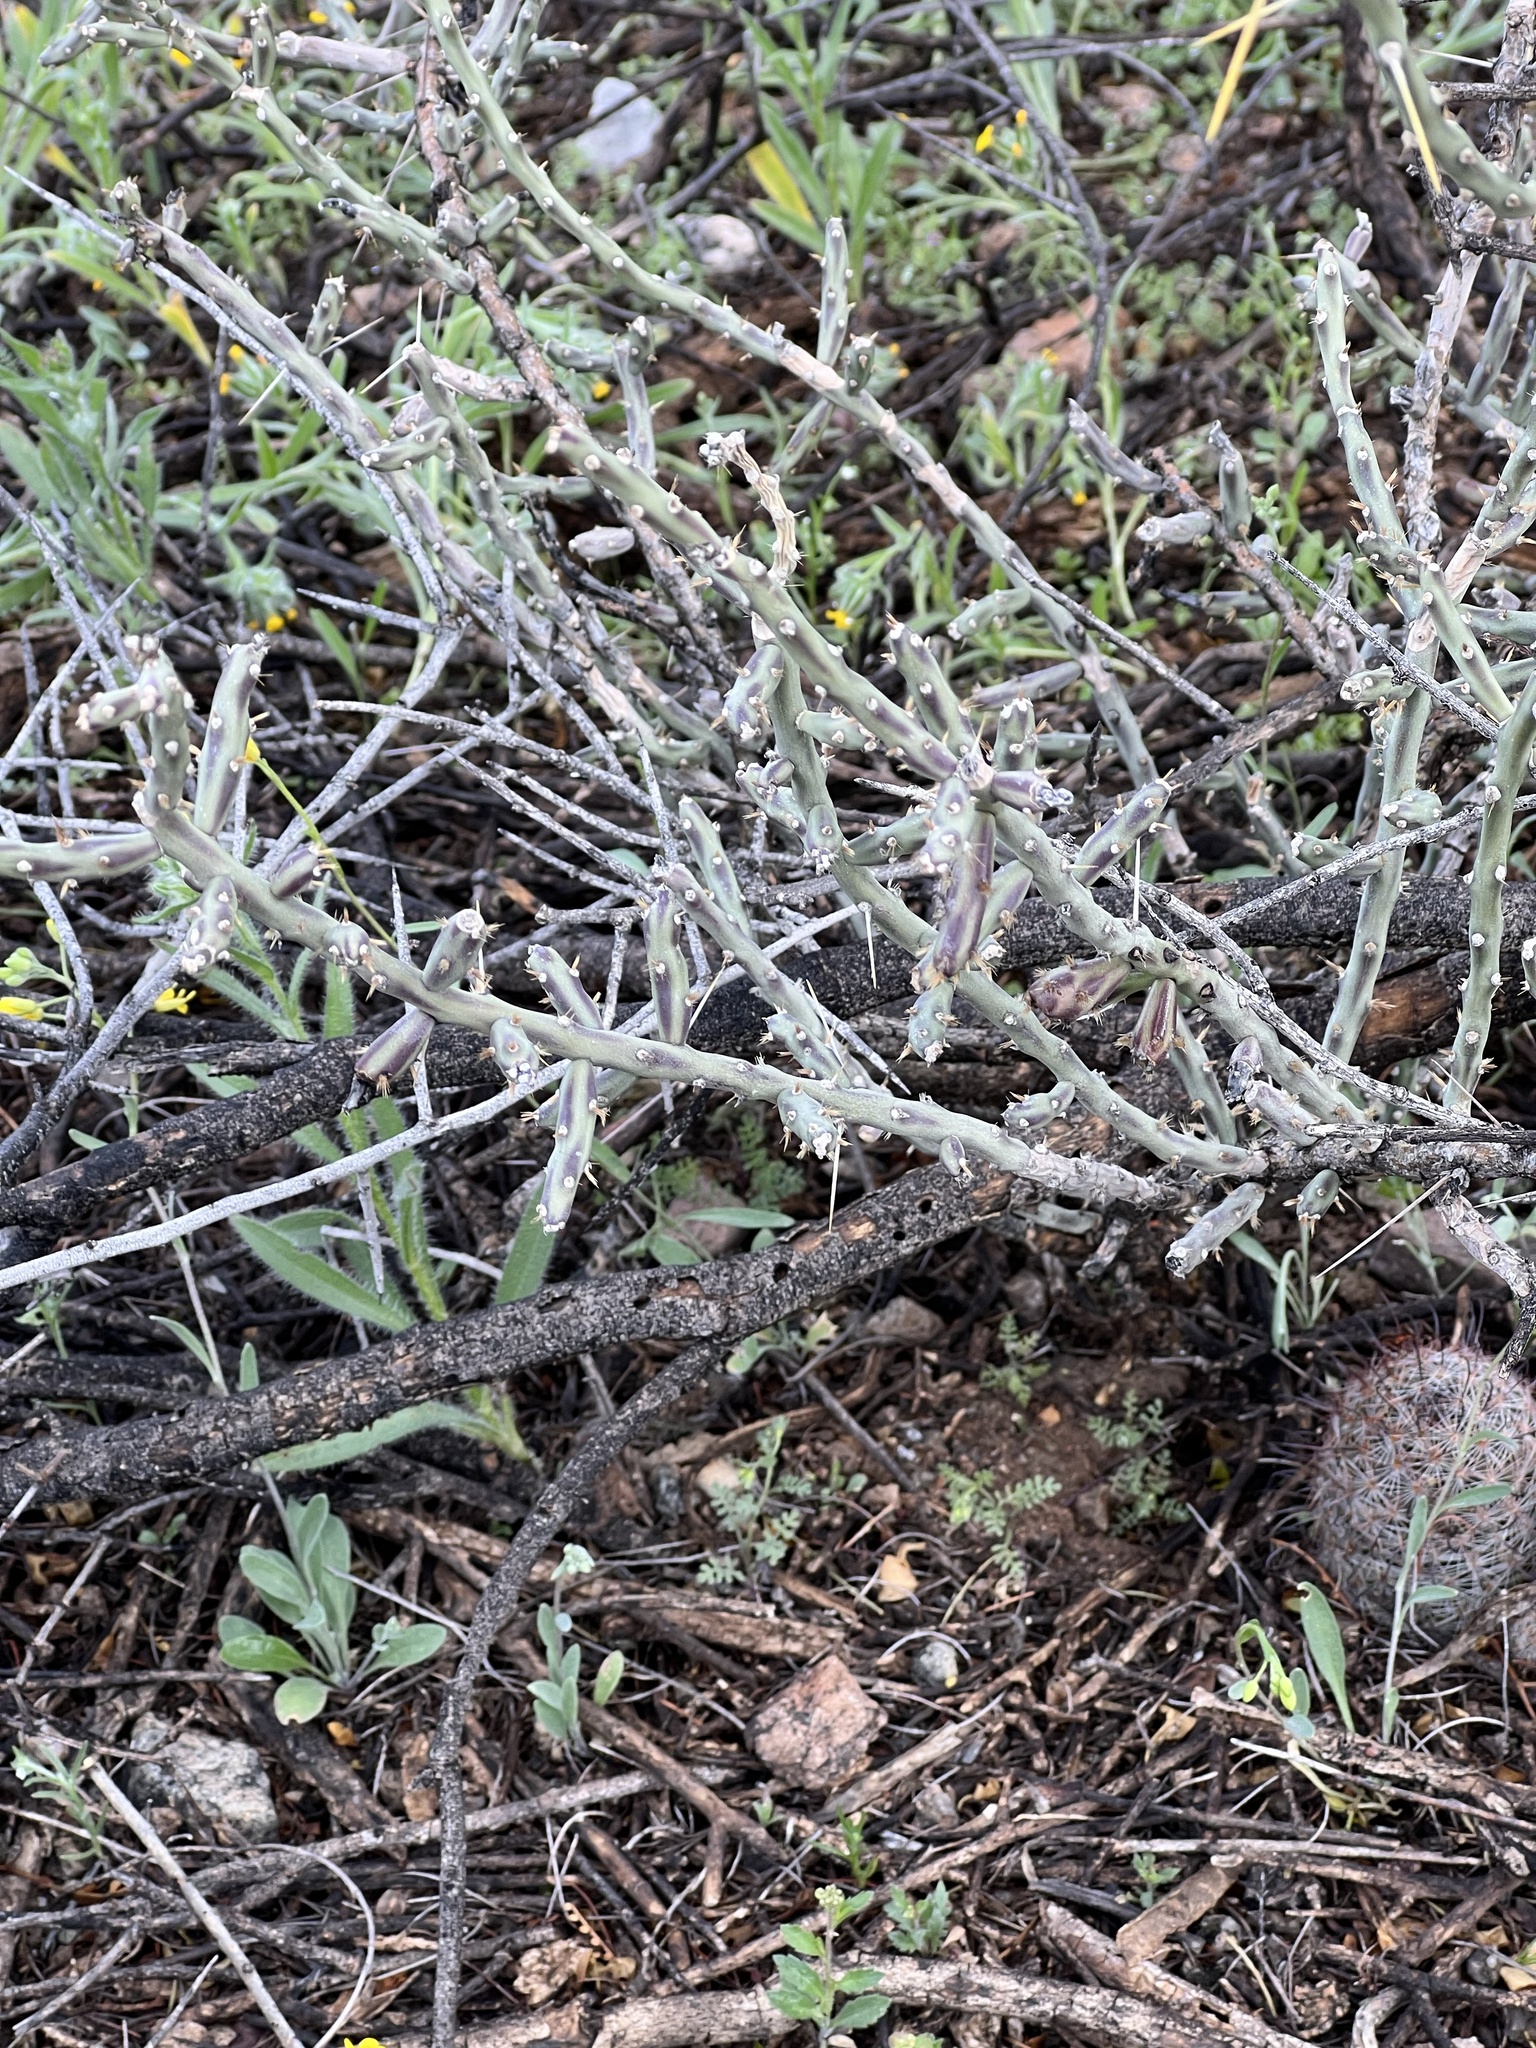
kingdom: Plantae
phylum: Tracheophyta
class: Magnoliopsida
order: Caryophyllales
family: Cactaceae
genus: Cylindropuntia
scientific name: Cylindropuntia leptocaulis
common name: Christmas cactus
